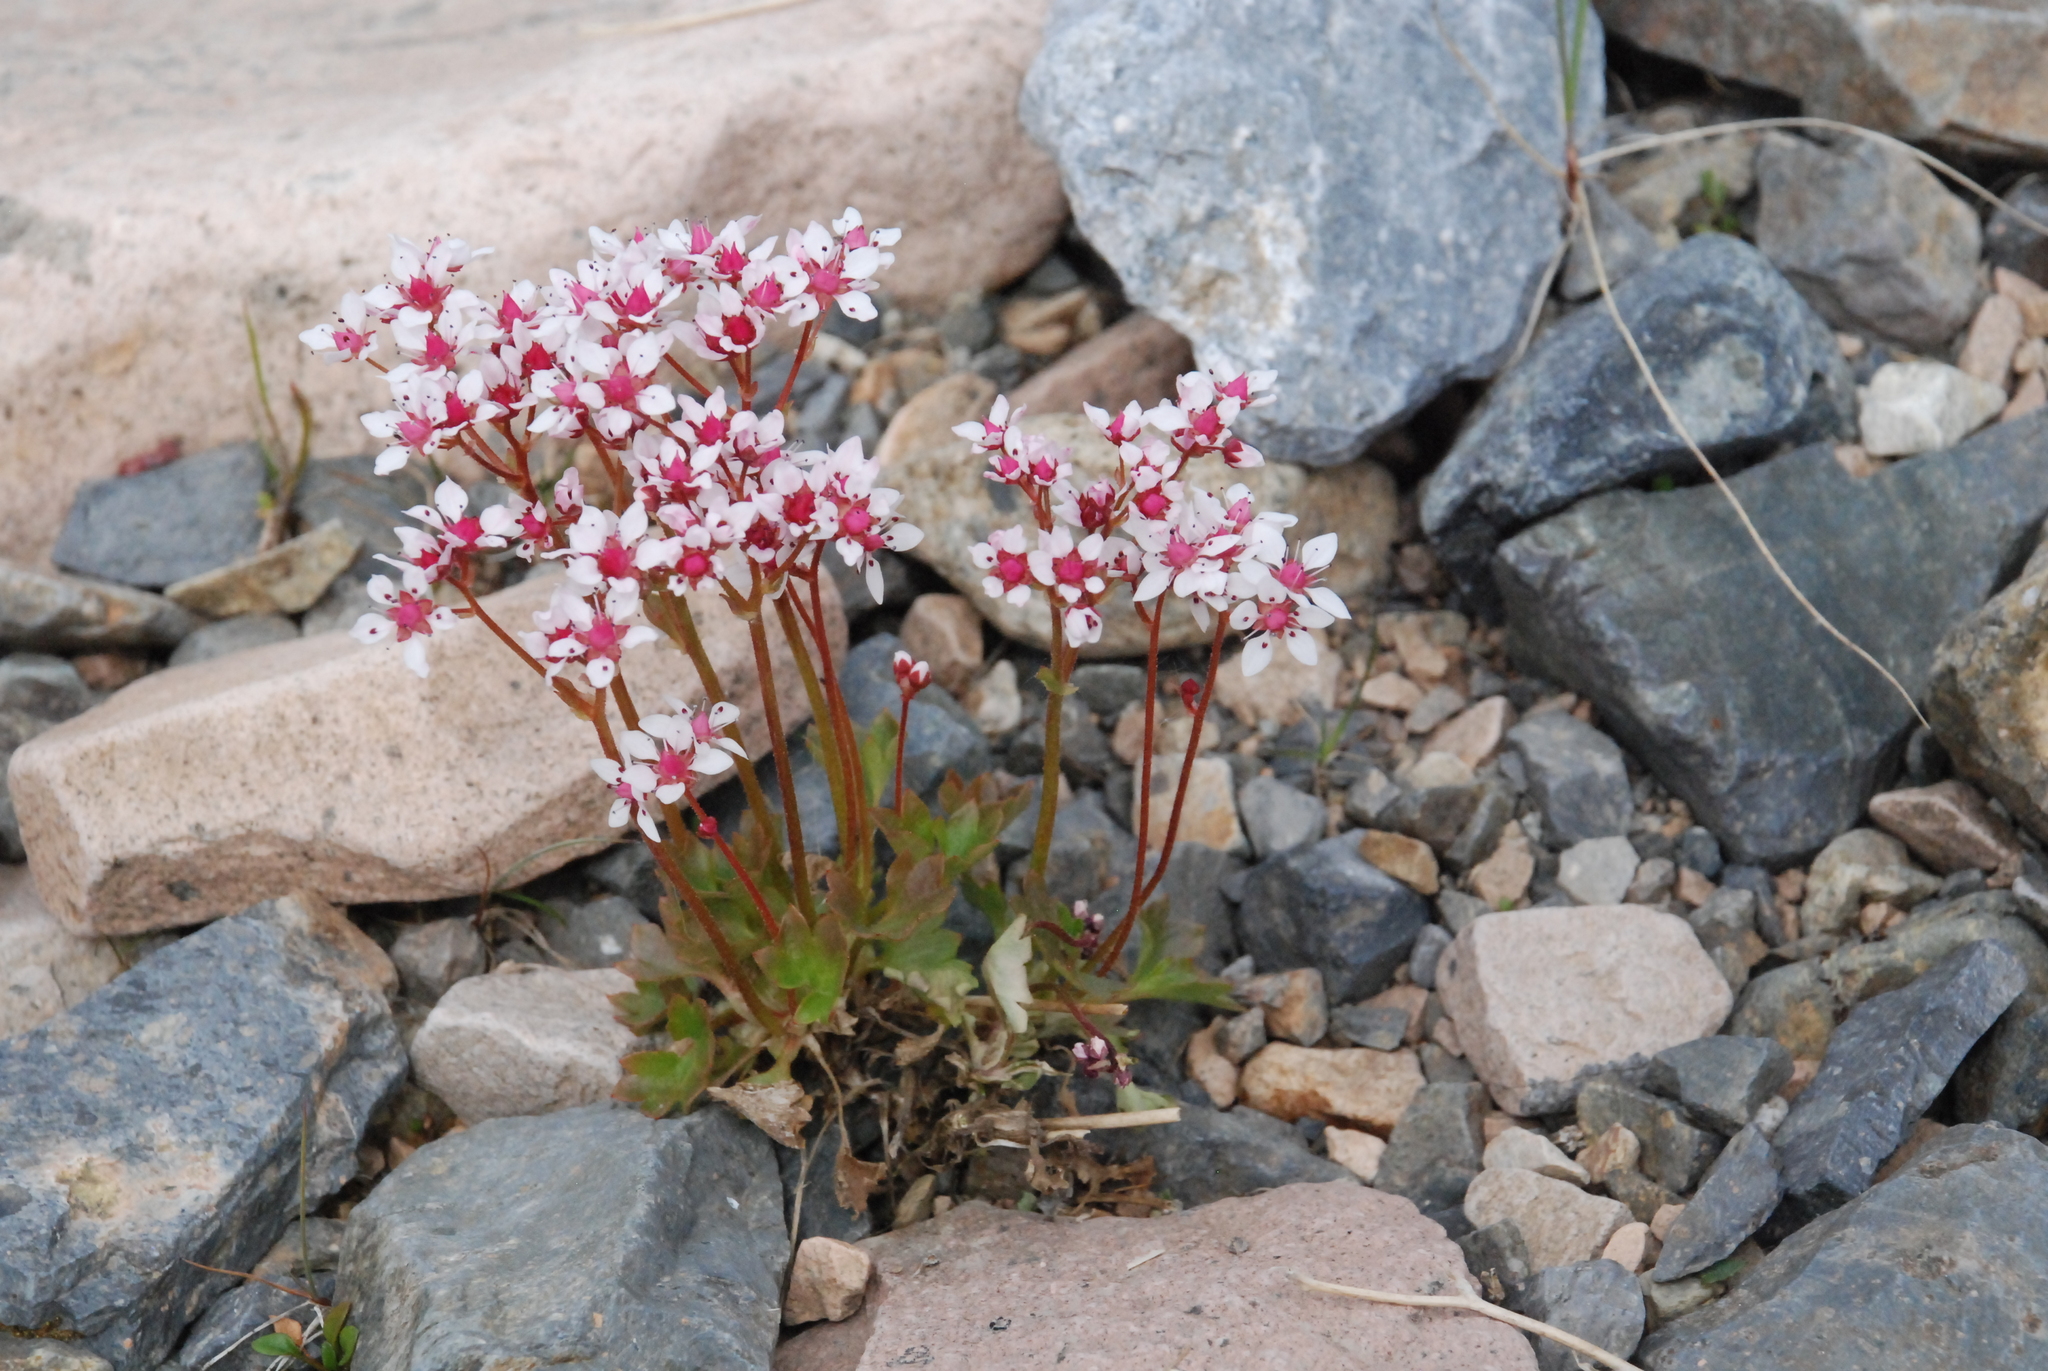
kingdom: Plantae
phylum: Tracheophyta
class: Magnoliopsida
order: Saxifragales
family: Saxifragaceae
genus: Micranthes
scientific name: Micranthes nudicaulis
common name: Nakedstem saxifrage
